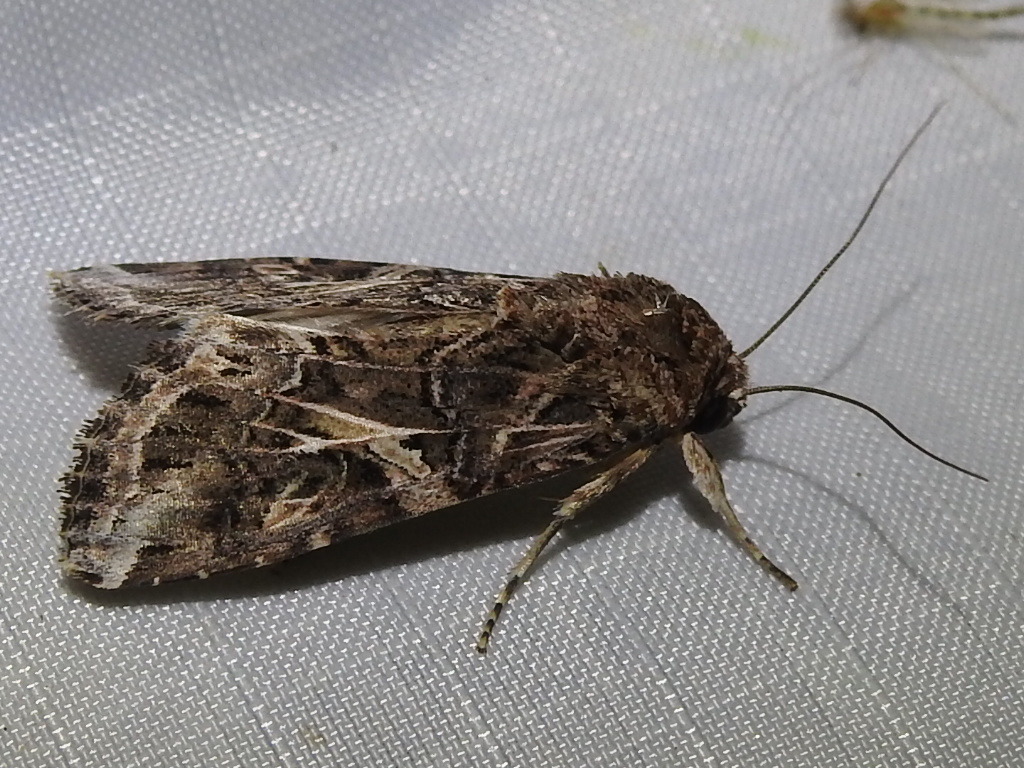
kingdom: Animalia
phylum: Arthropoda
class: Insecta
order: Lepidoptera
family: Noctuidae
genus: Spodoptera
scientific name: Spodoptera ornithogalli
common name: Yellow-striped armyworm
